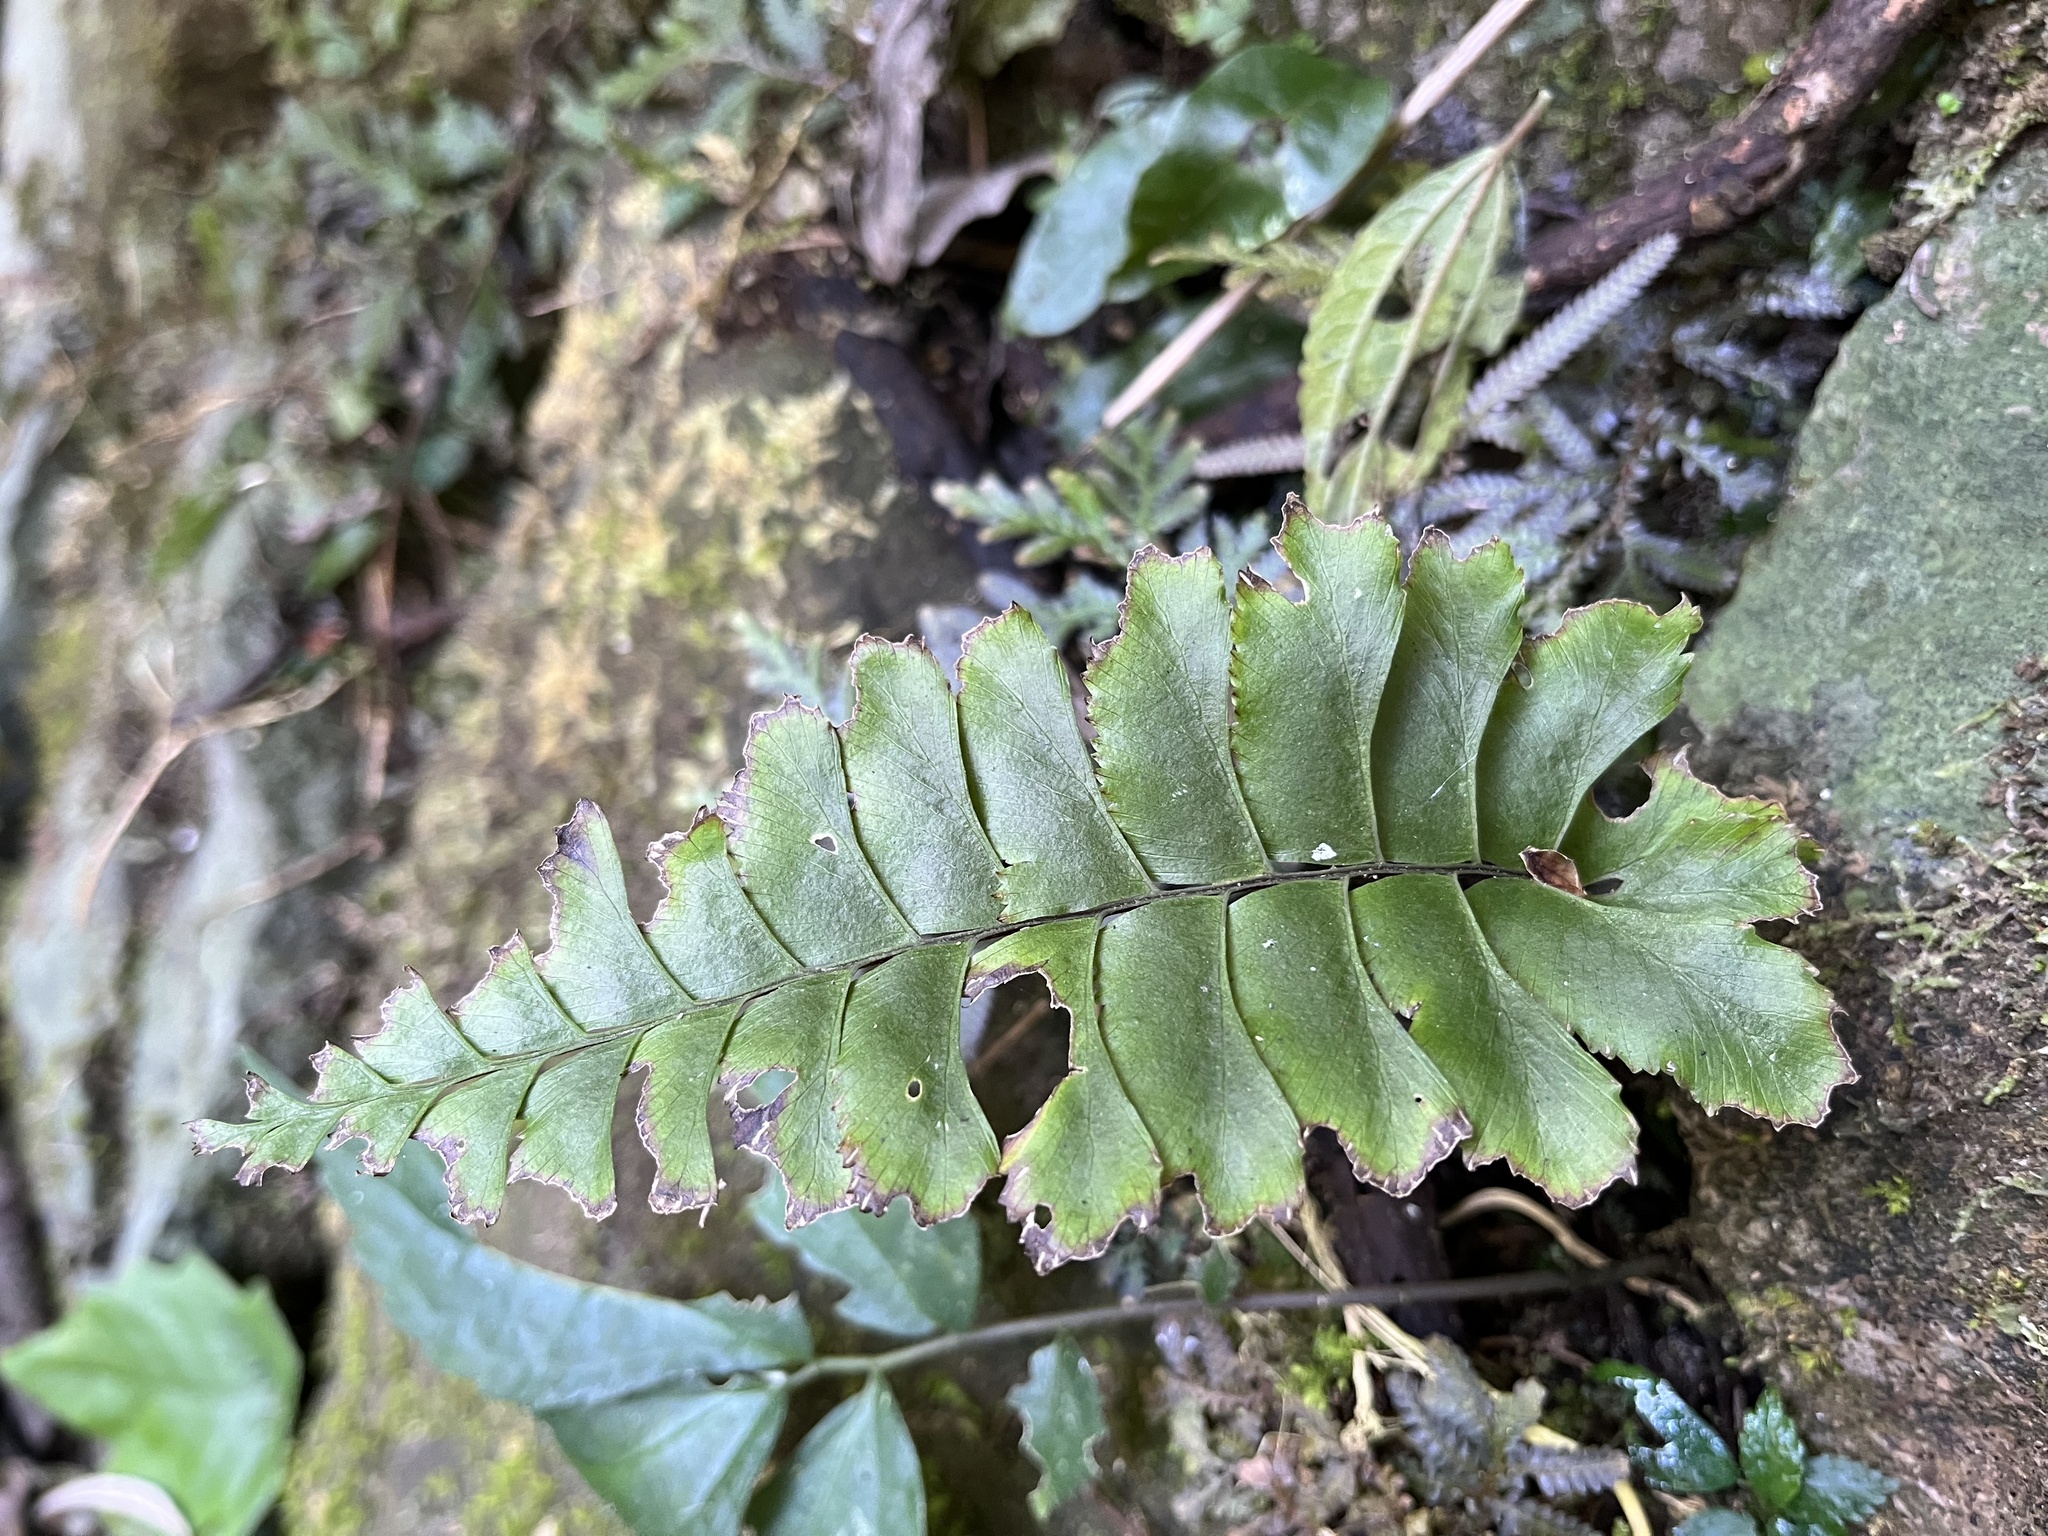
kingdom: Plantae
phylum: Tracheophyta
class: Polypodiopsida
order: Polypodiales
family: Aspleniaceae
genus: Hymenasplenium
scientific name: Hymenasplenium excisum
